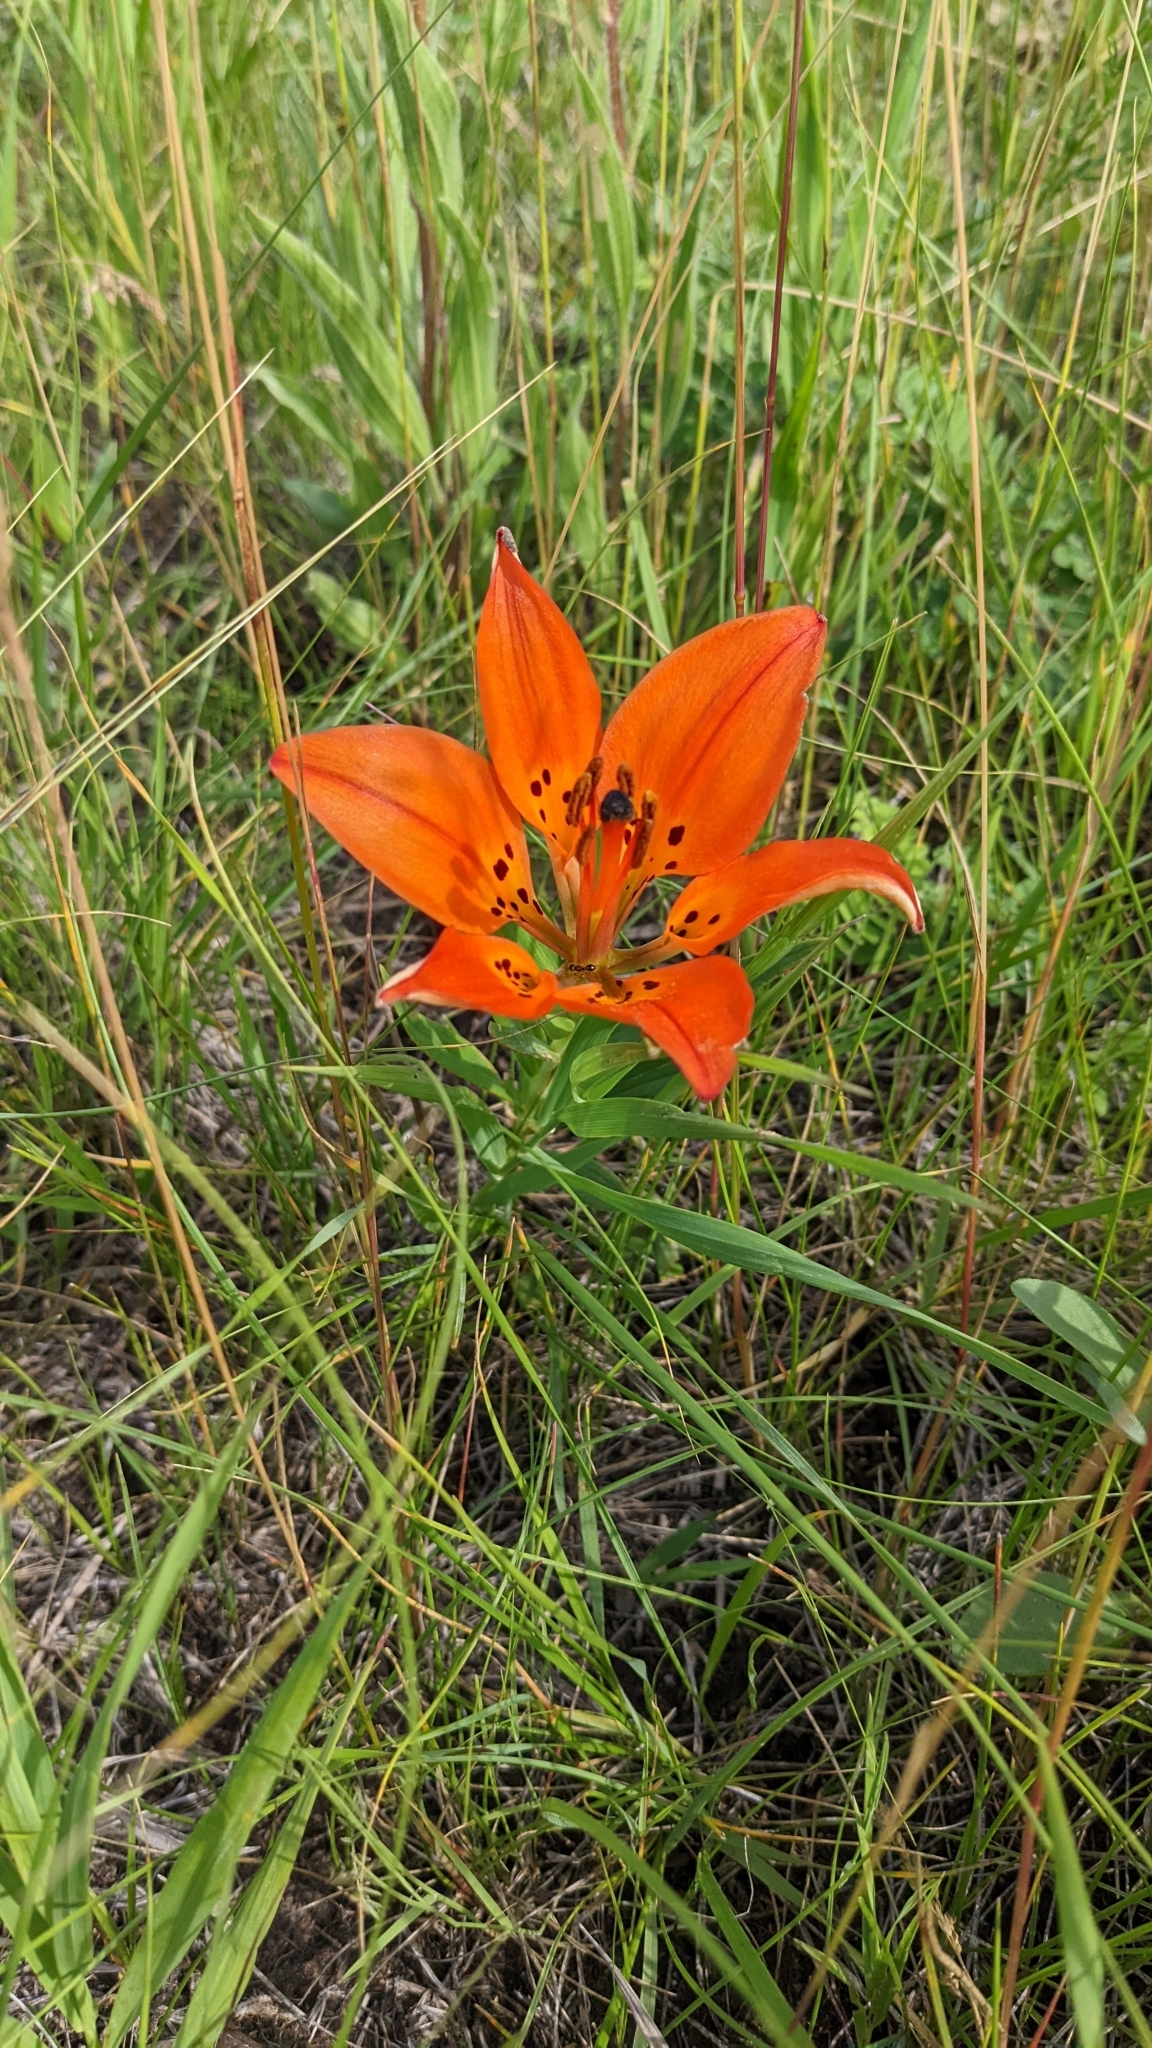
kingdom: Plantae
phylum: Tracheophyta
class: Liliopsida
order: Liliales
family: Liliaceae
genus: Lilium
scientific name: Lilium philadelphicum
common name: Red lily
